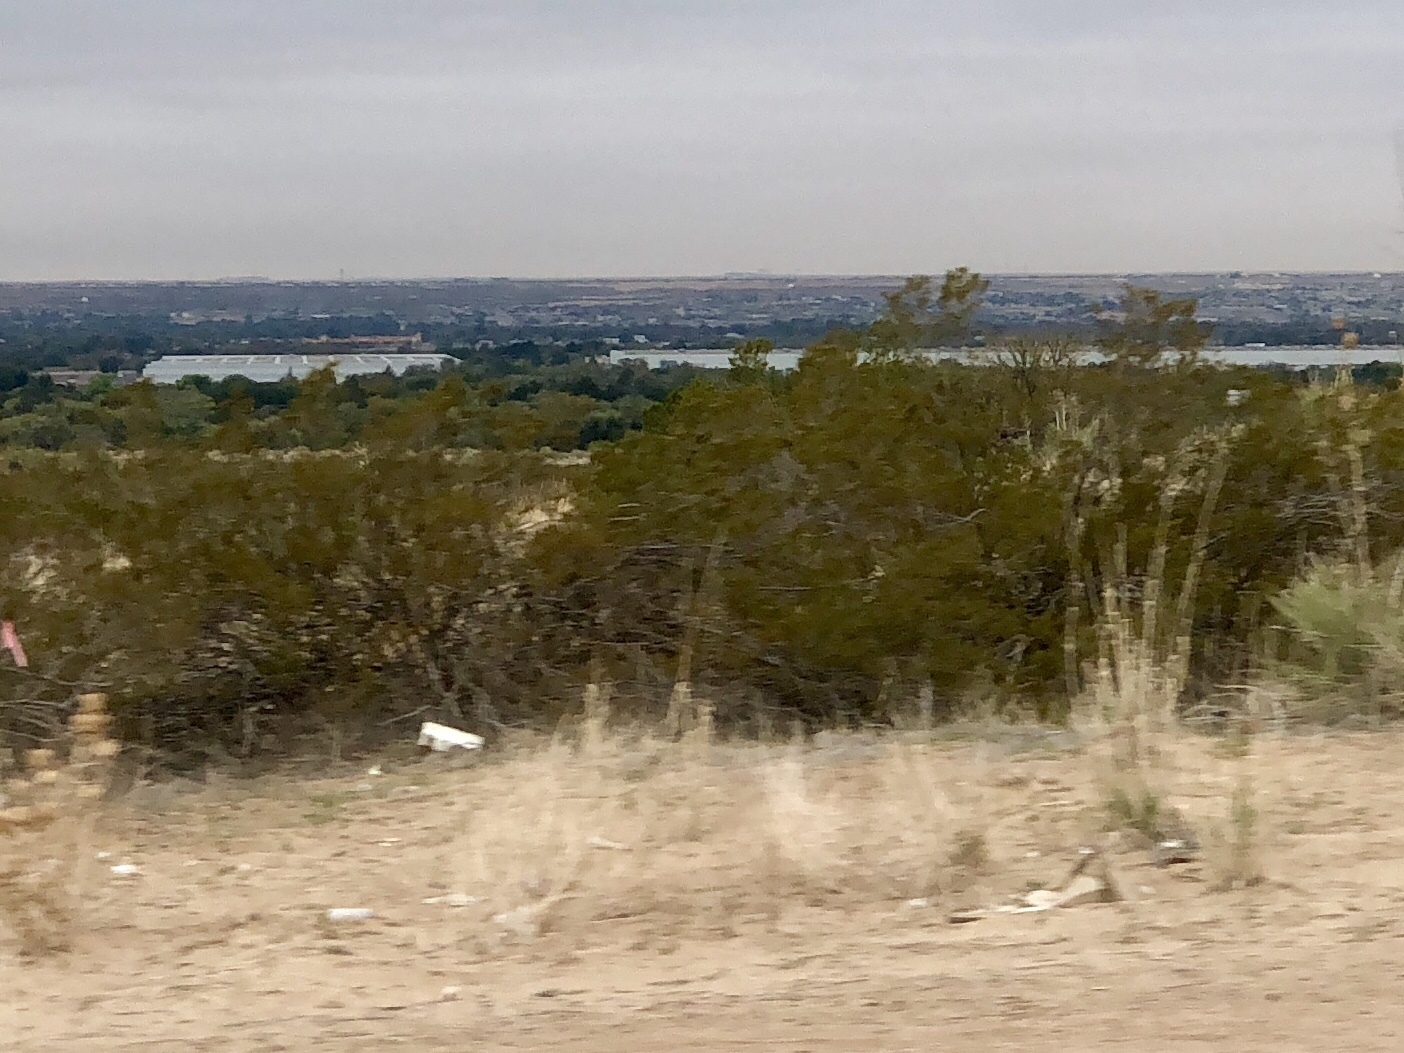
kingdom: Plantae
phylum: Tracheophyta
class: Magnoliopsida
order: Zygophyllales
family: Zygophyllaceae
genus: Larrea
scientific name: Larrea tridentata
